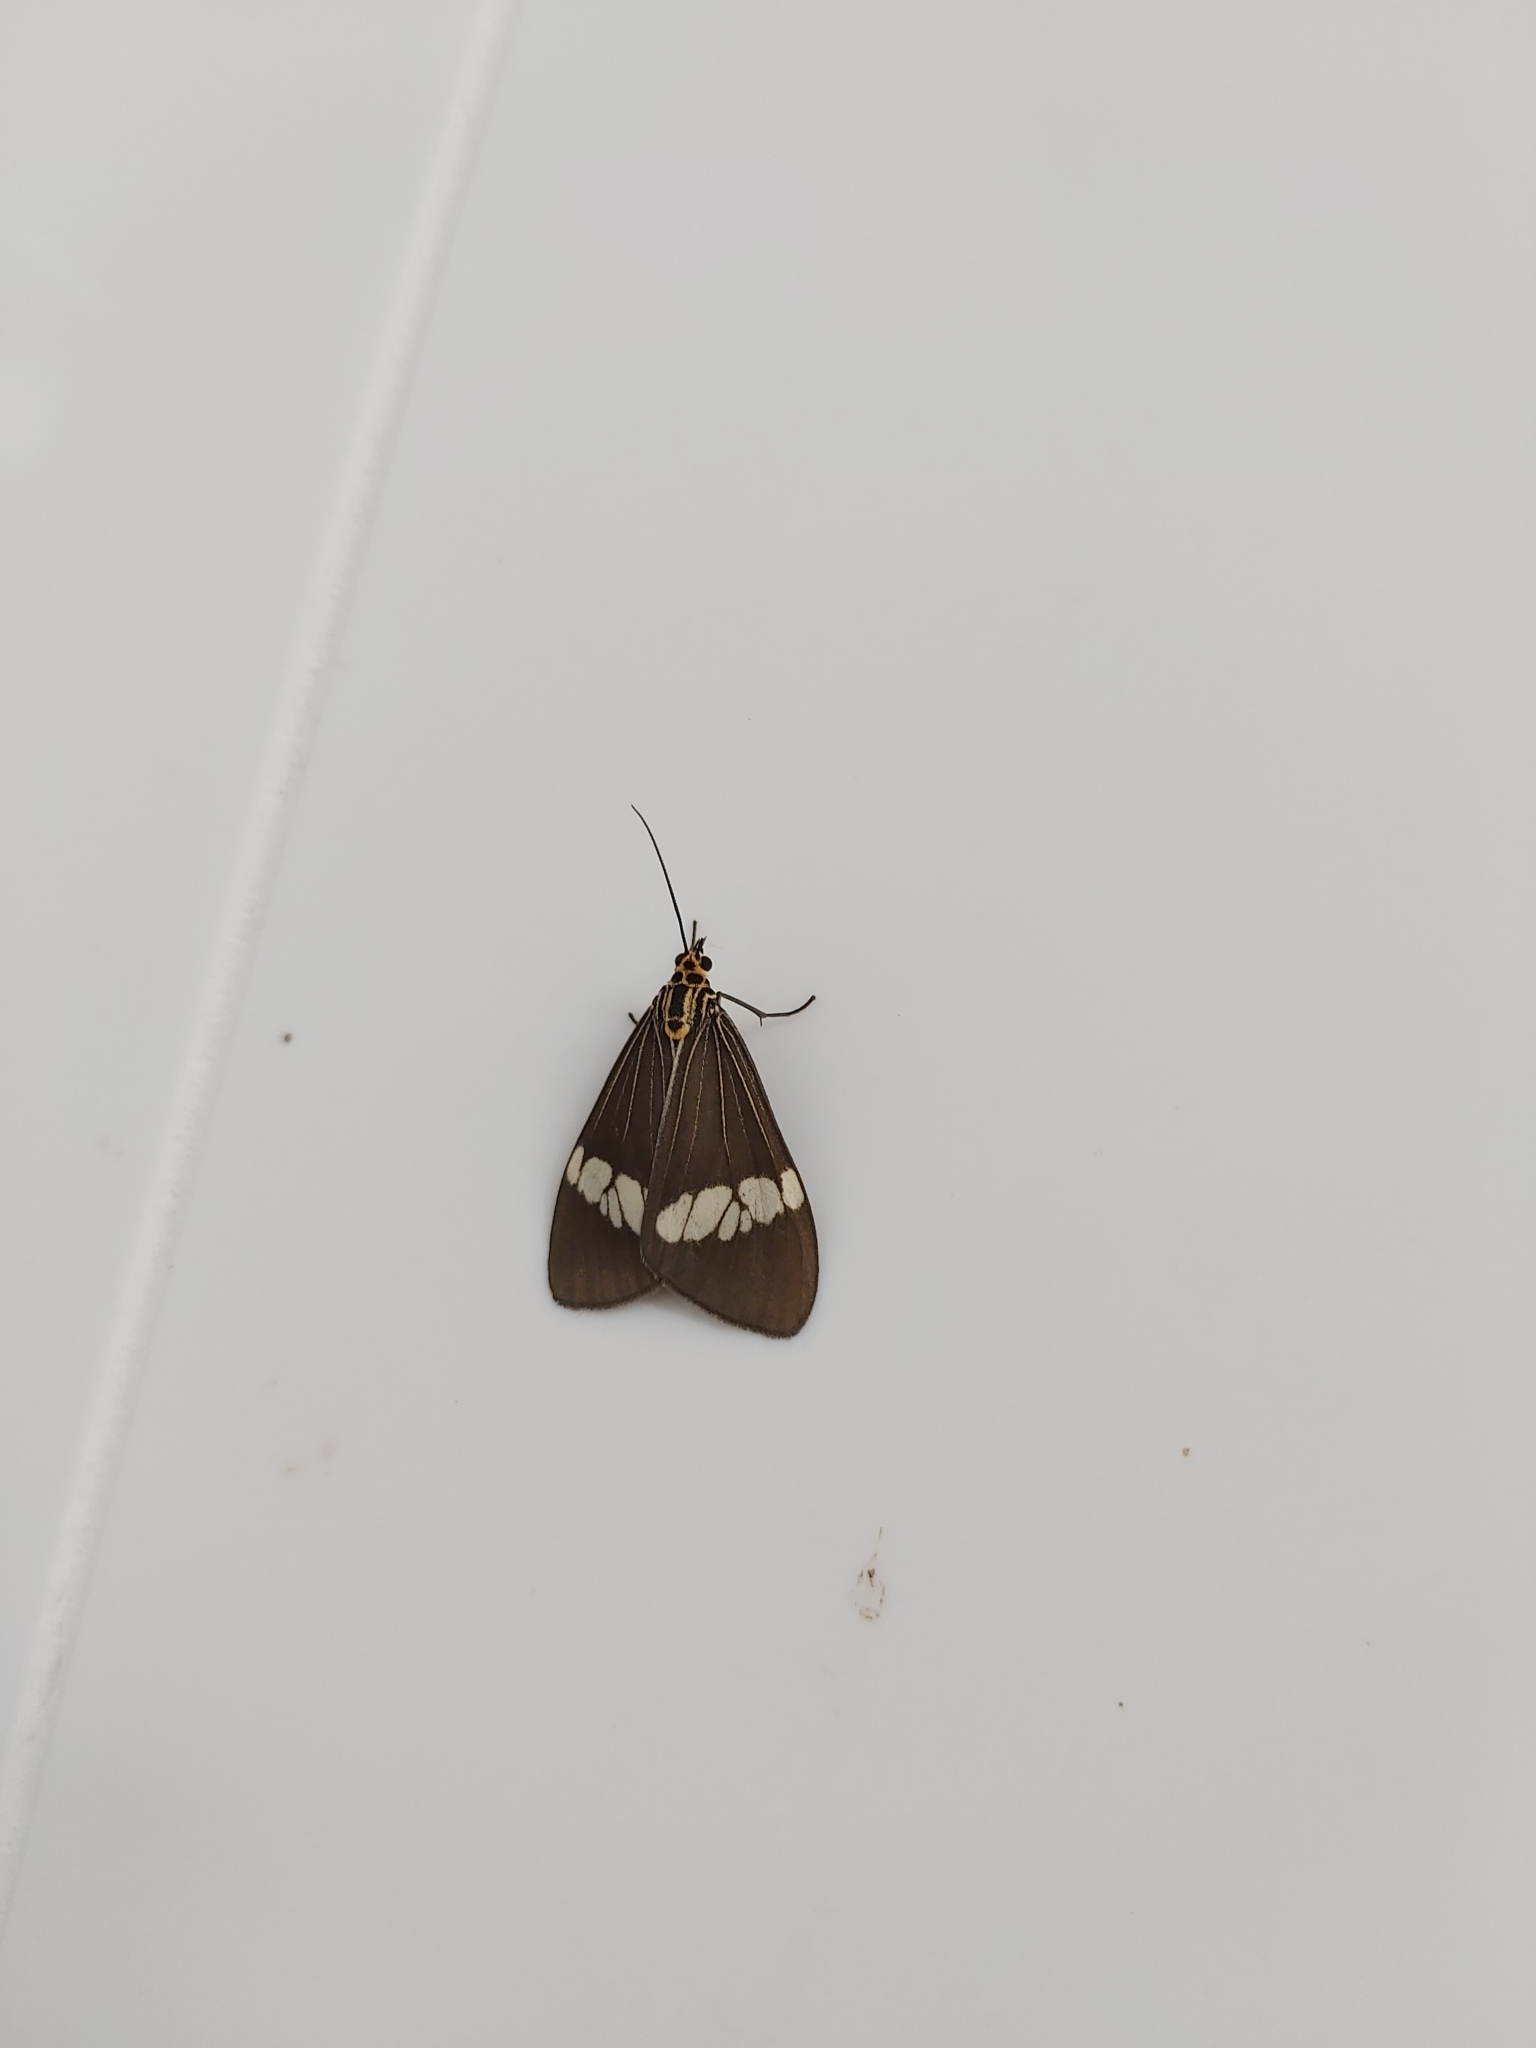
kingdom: Animalia
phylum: Arthropoda
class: Insecta
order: Lepidoptera
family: Erebidae
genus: Nyctemera
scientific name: Nyctemera baulus
